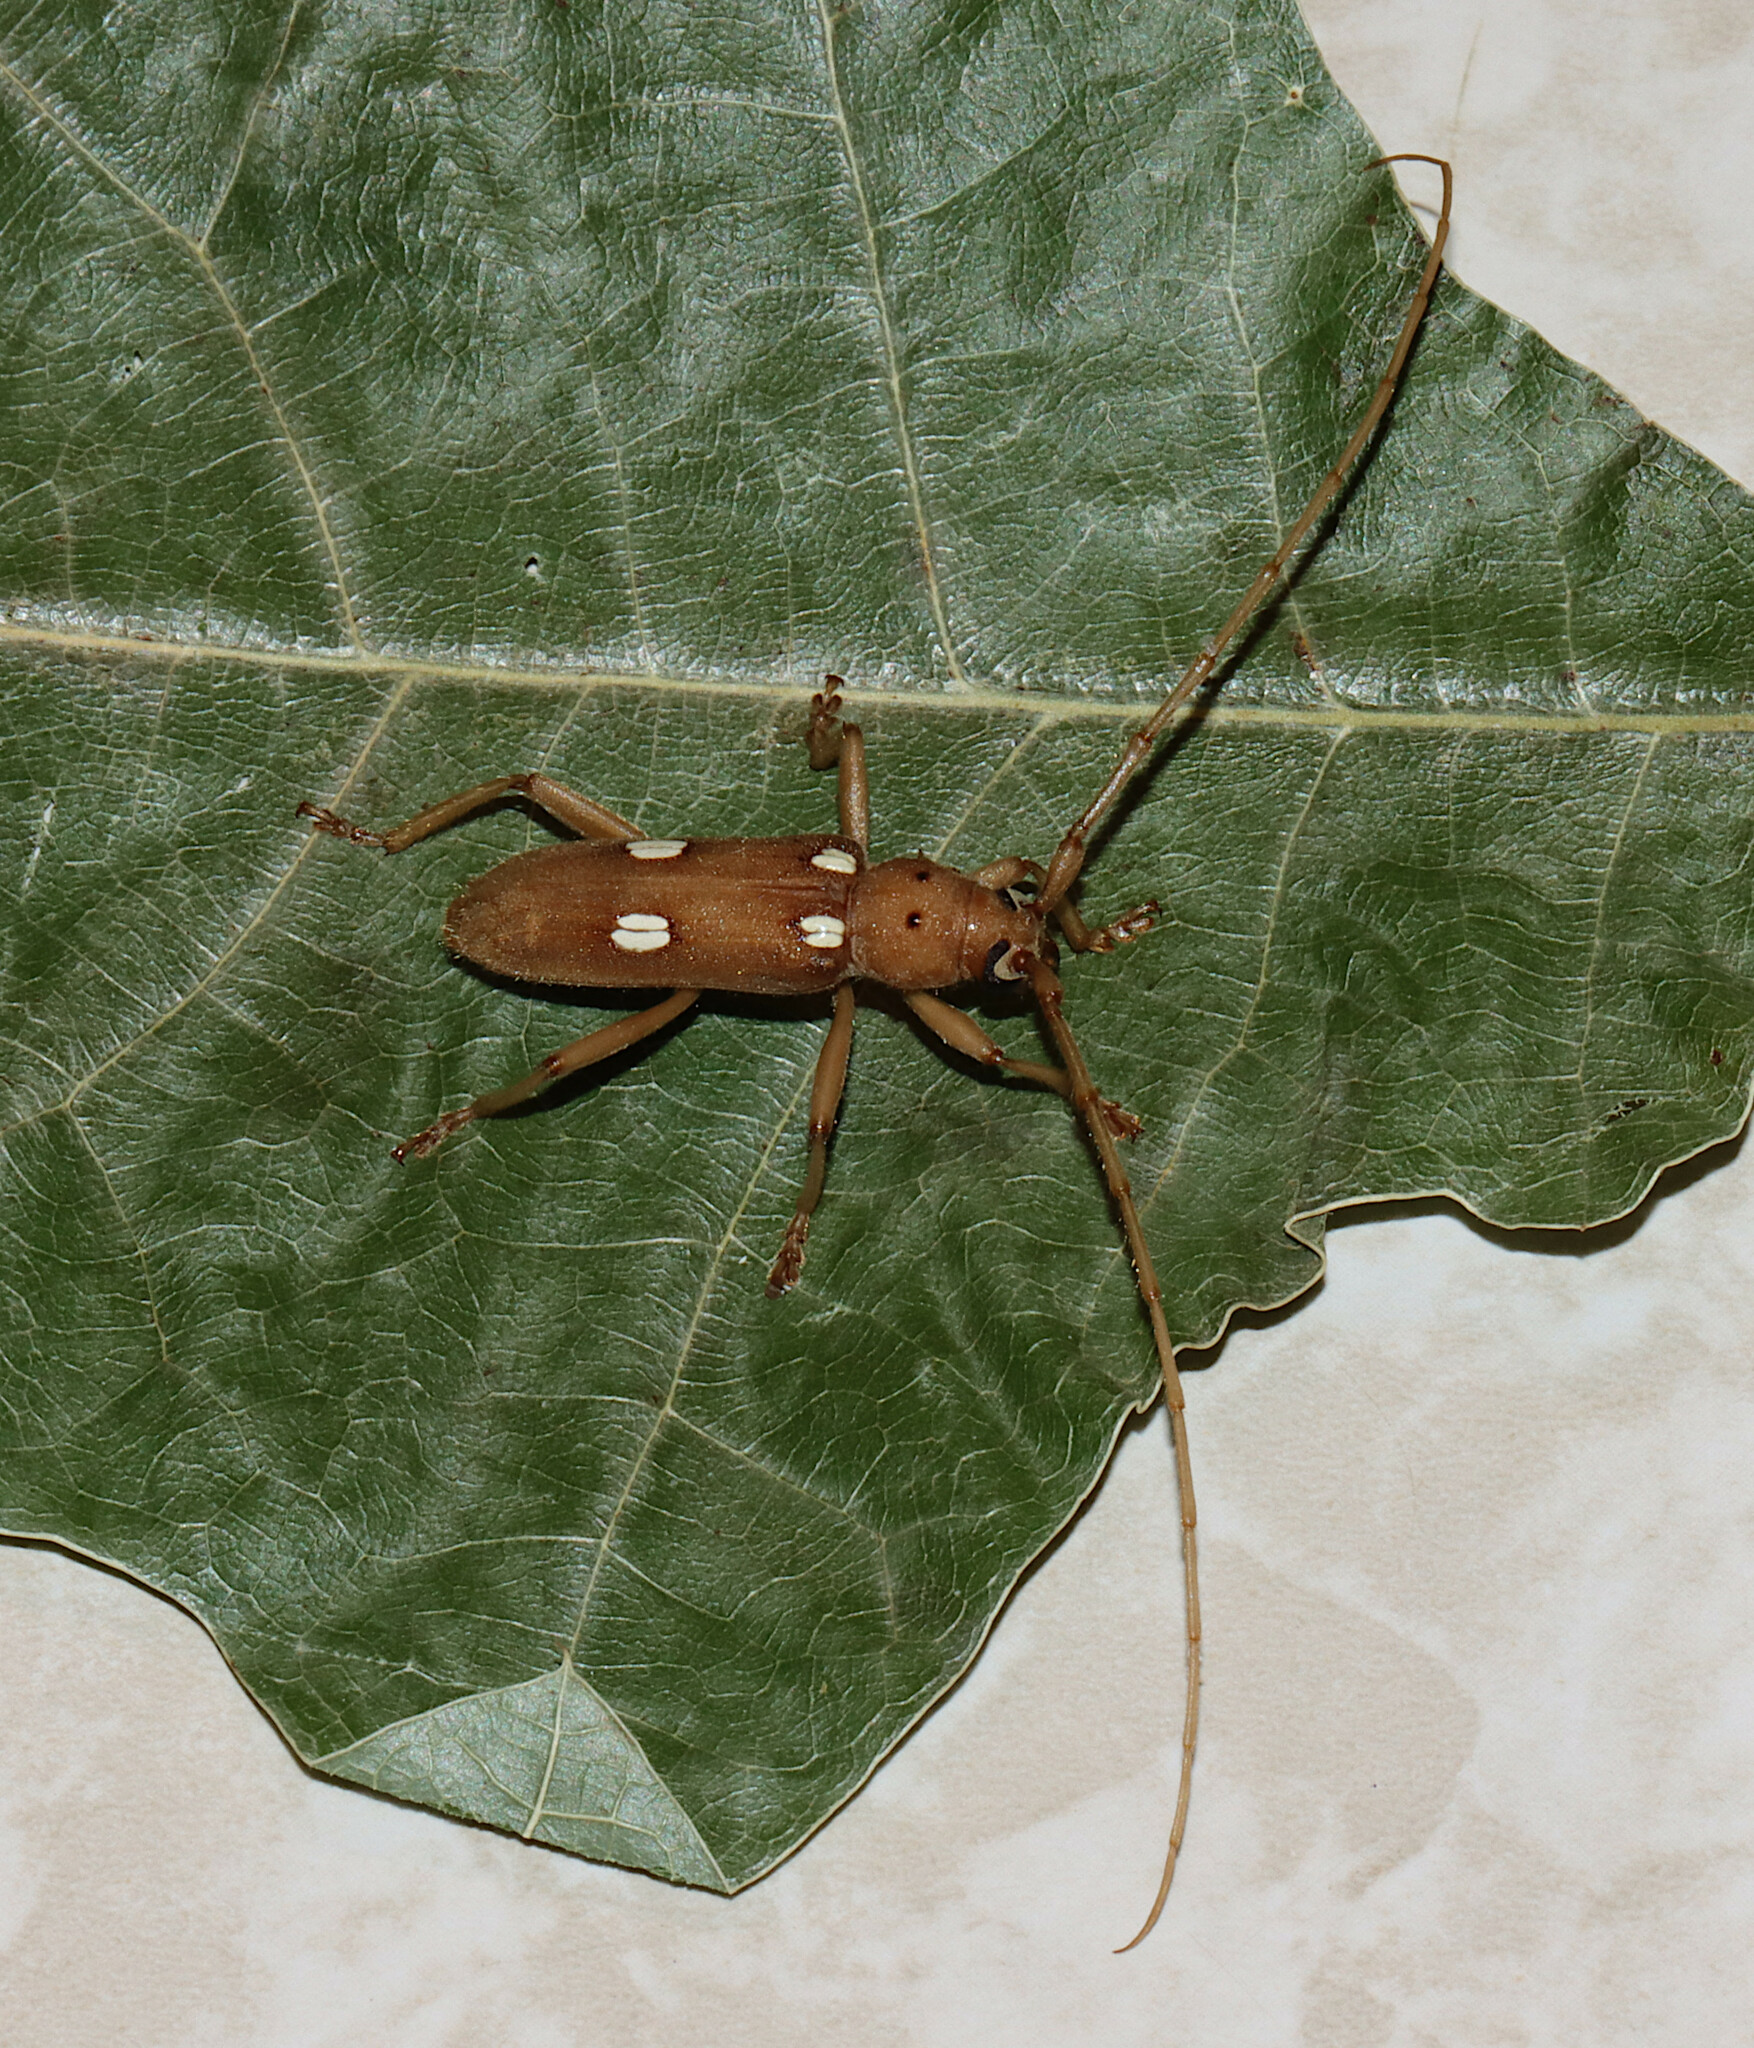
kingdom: Animalia
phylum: Arthropoda
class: Insecta
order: Coleoptera
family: Cerambycidae
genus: Eburia
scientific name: Eburia quadrigeminata
